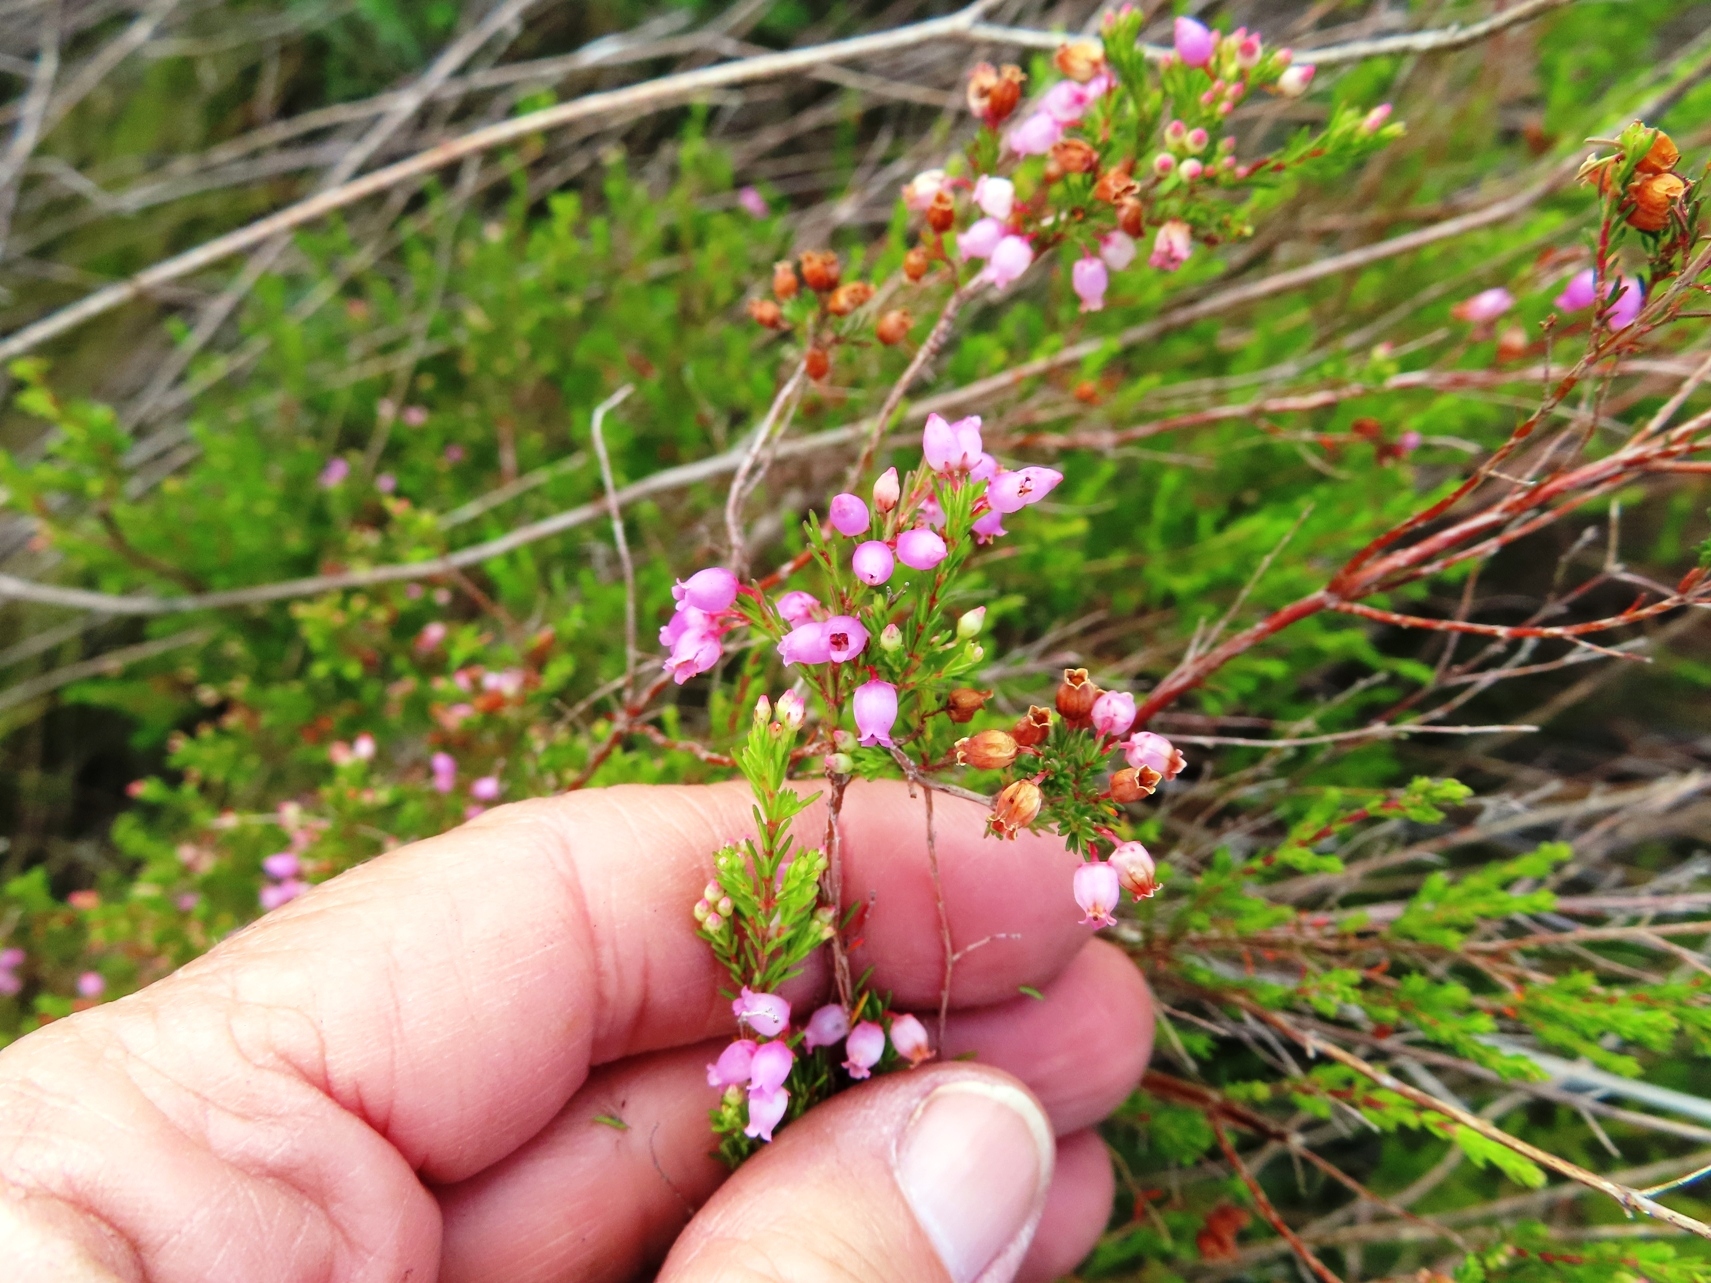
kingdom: Plantae
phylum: Tracheophyta
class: Magnoliopsida
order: Ericales
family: Ericaceae
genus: Erica
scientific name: Erica gracilis
